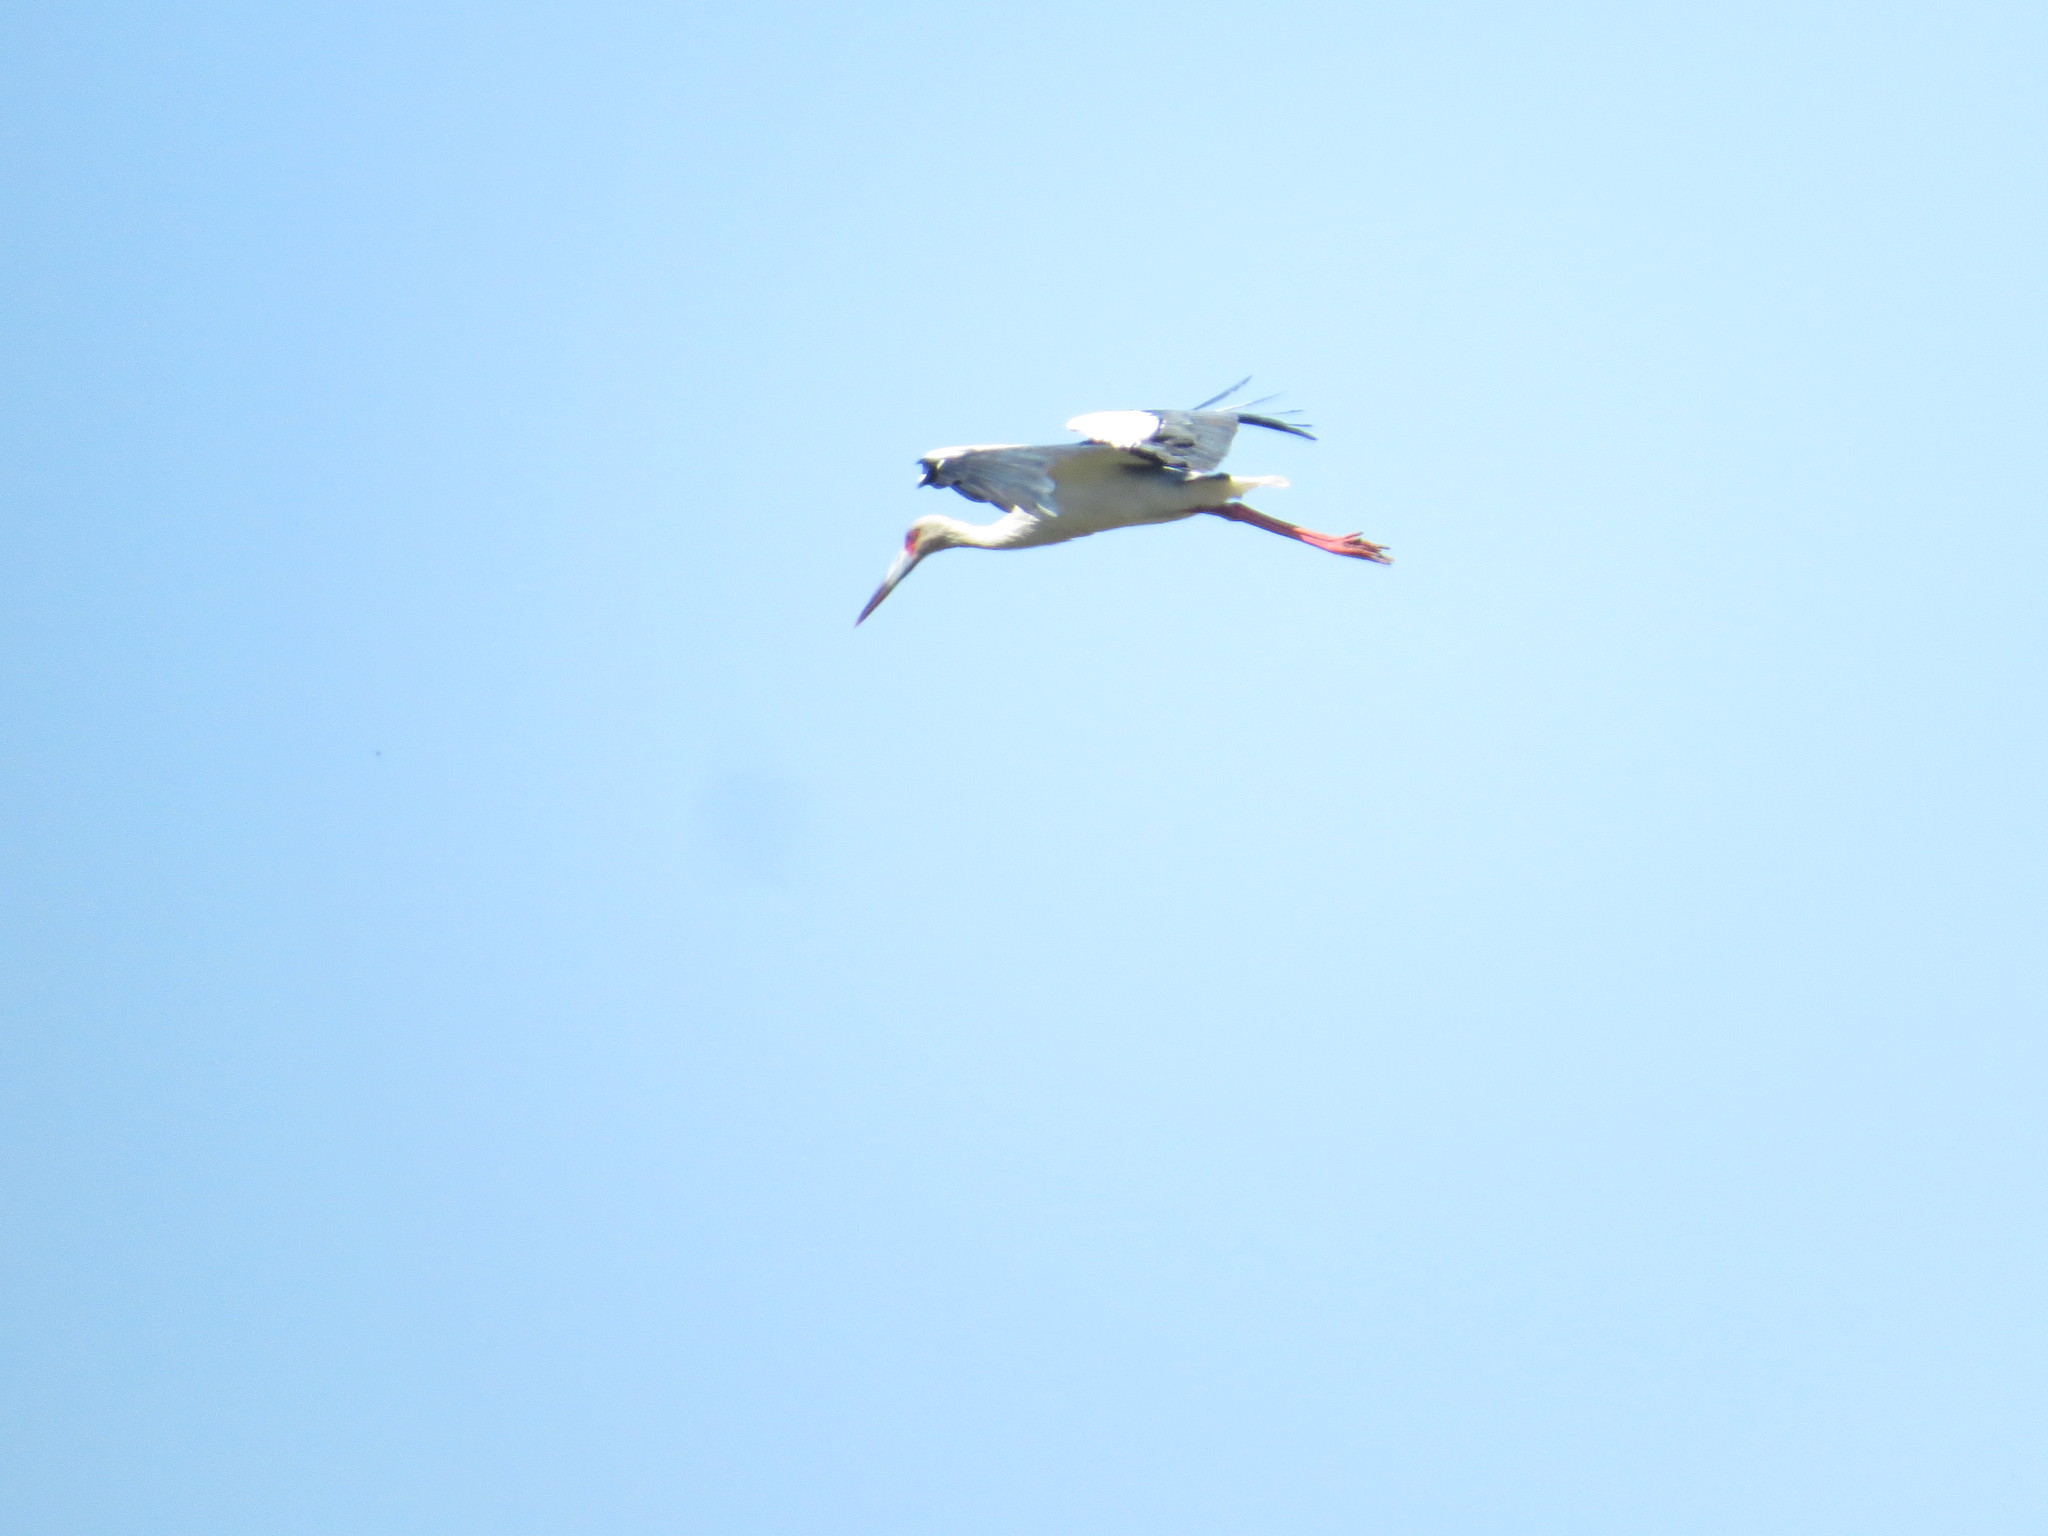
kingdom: Animalia
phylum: Chordata
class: Aves
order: Ciconiiformes
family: Ciconiidae
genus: Ciconia
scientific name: Ciconia maguari
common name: Maguari stork
